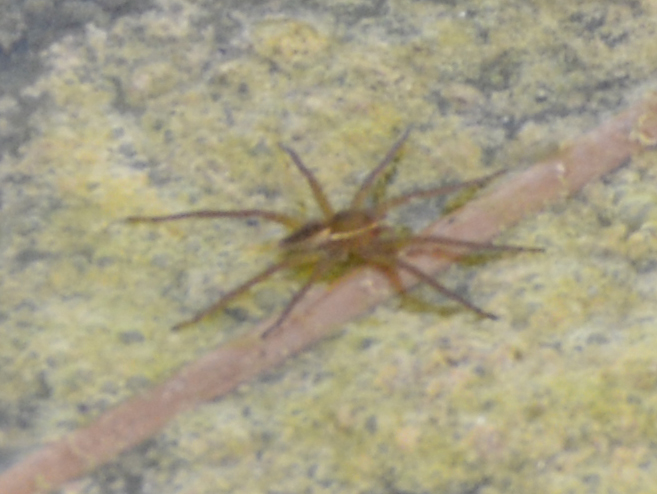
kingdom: Animalia
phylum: Arthropoda
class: Arachnida
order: Araneae
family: Pisauridae
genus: Dolomedes
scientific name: Dolomedes triton
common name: Six-spotted fishing spider
